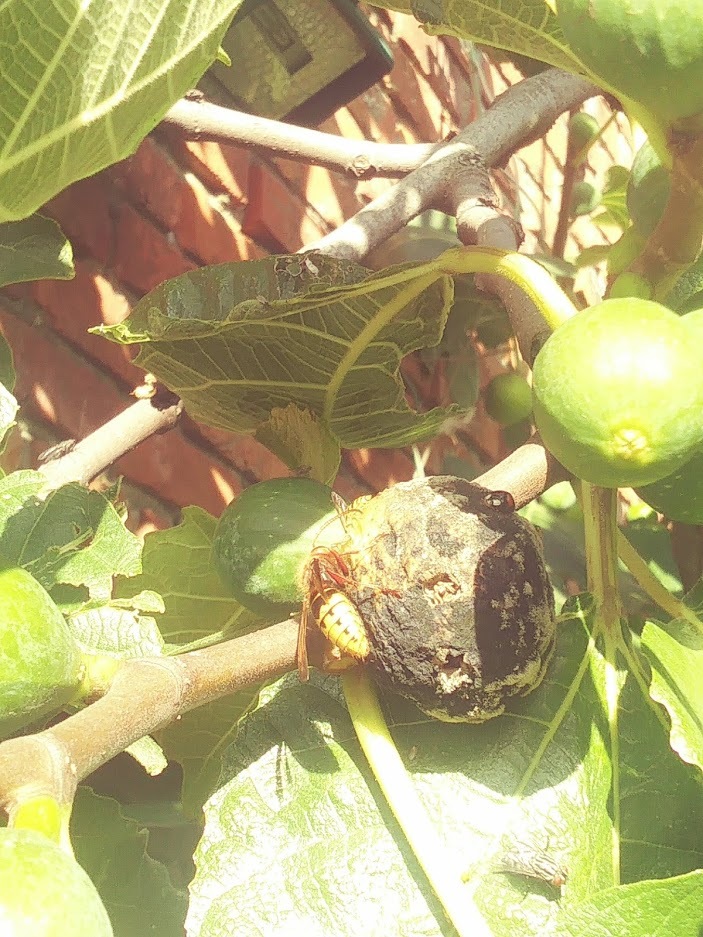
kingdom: Animalia
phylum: Arthropoda
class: Insecta
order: Hymenoptera
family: Vespidae
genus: Vespa
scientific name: Vespa crabro
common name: Hornet
